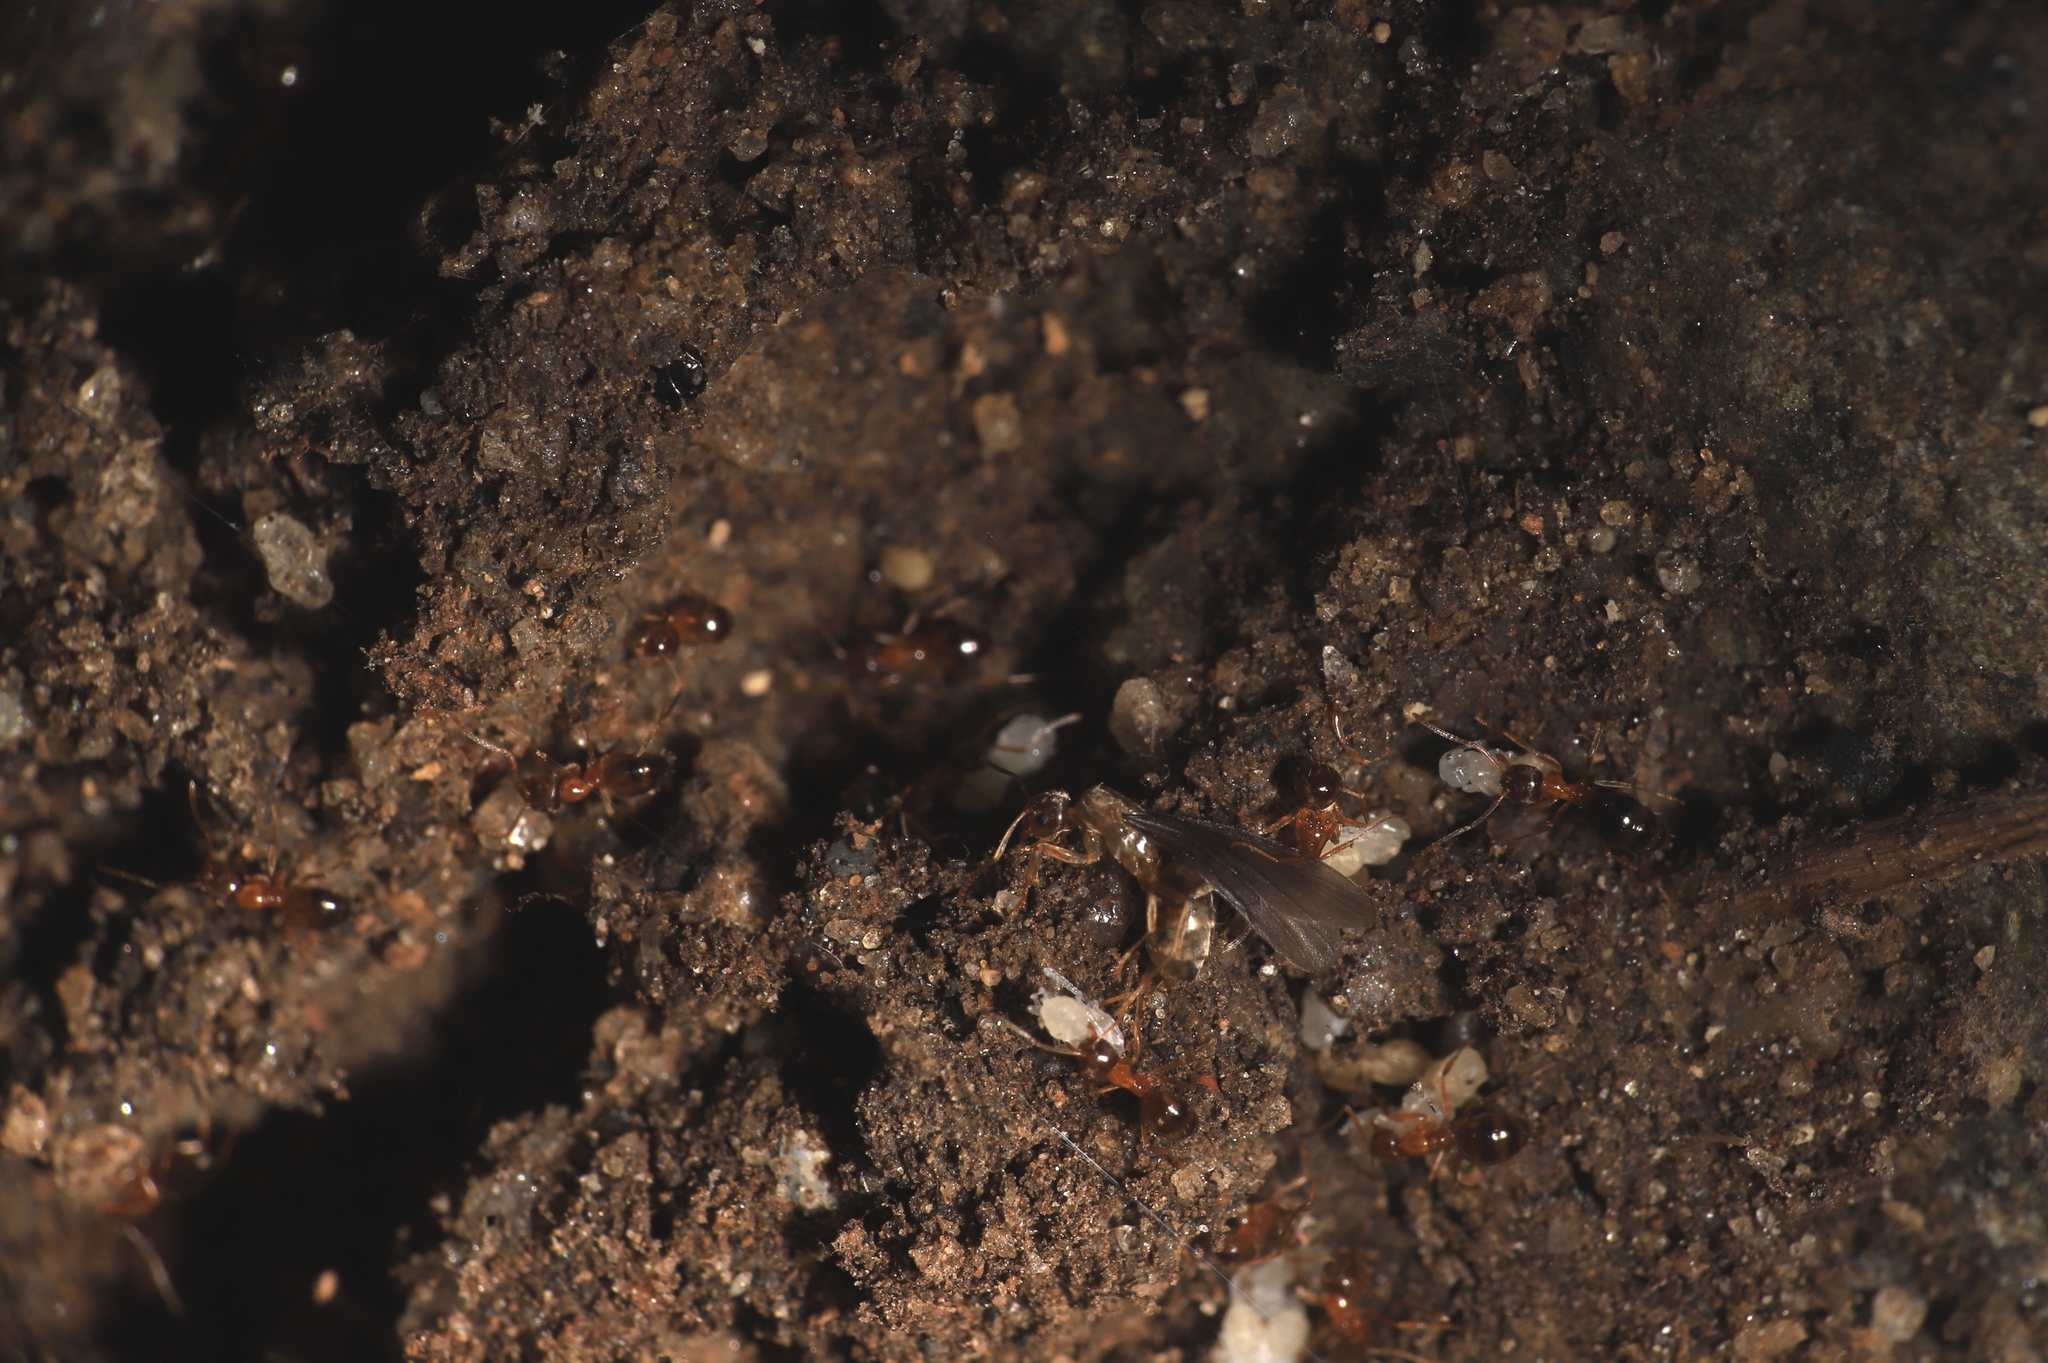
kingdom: Animalia
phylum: Arthropoda
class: Insecta
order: Hymenoptera
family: Formicidae
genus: Paratrechina
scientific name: Paratrechina flavipes
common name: Eastern asian formicine ant
